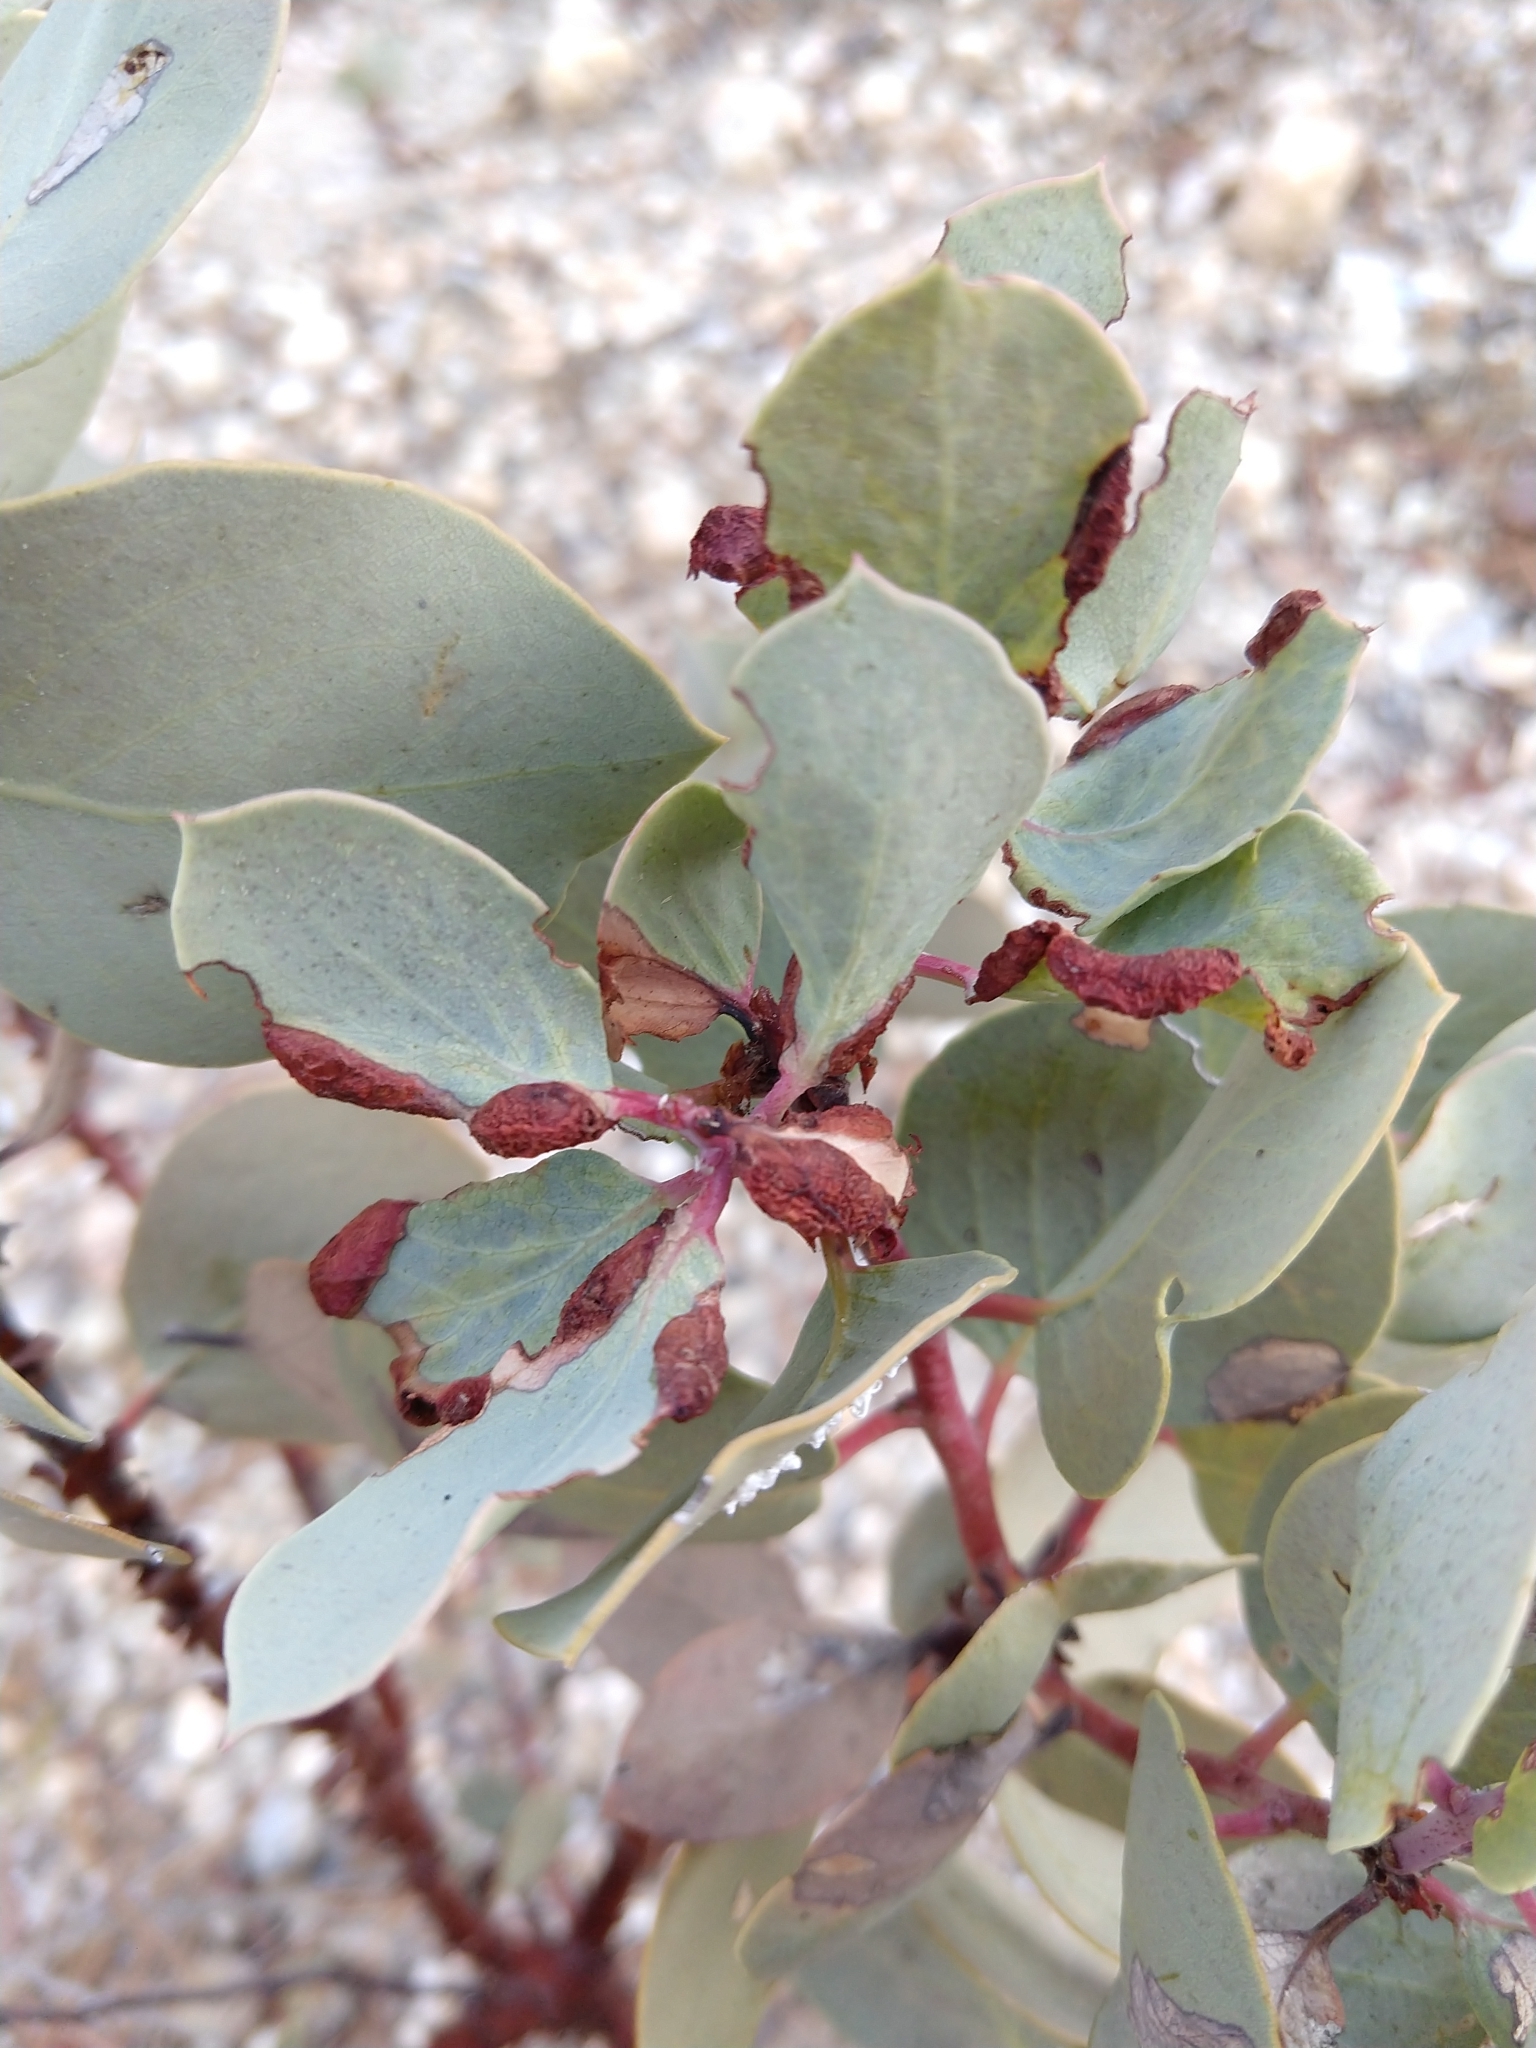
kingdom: Animalia
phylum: Arthropoda
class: Insecta
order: Hemiptera
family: Aphididae
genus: Tamalia
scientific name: Tamalia coweni
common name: Manzanita leafgall aphid
